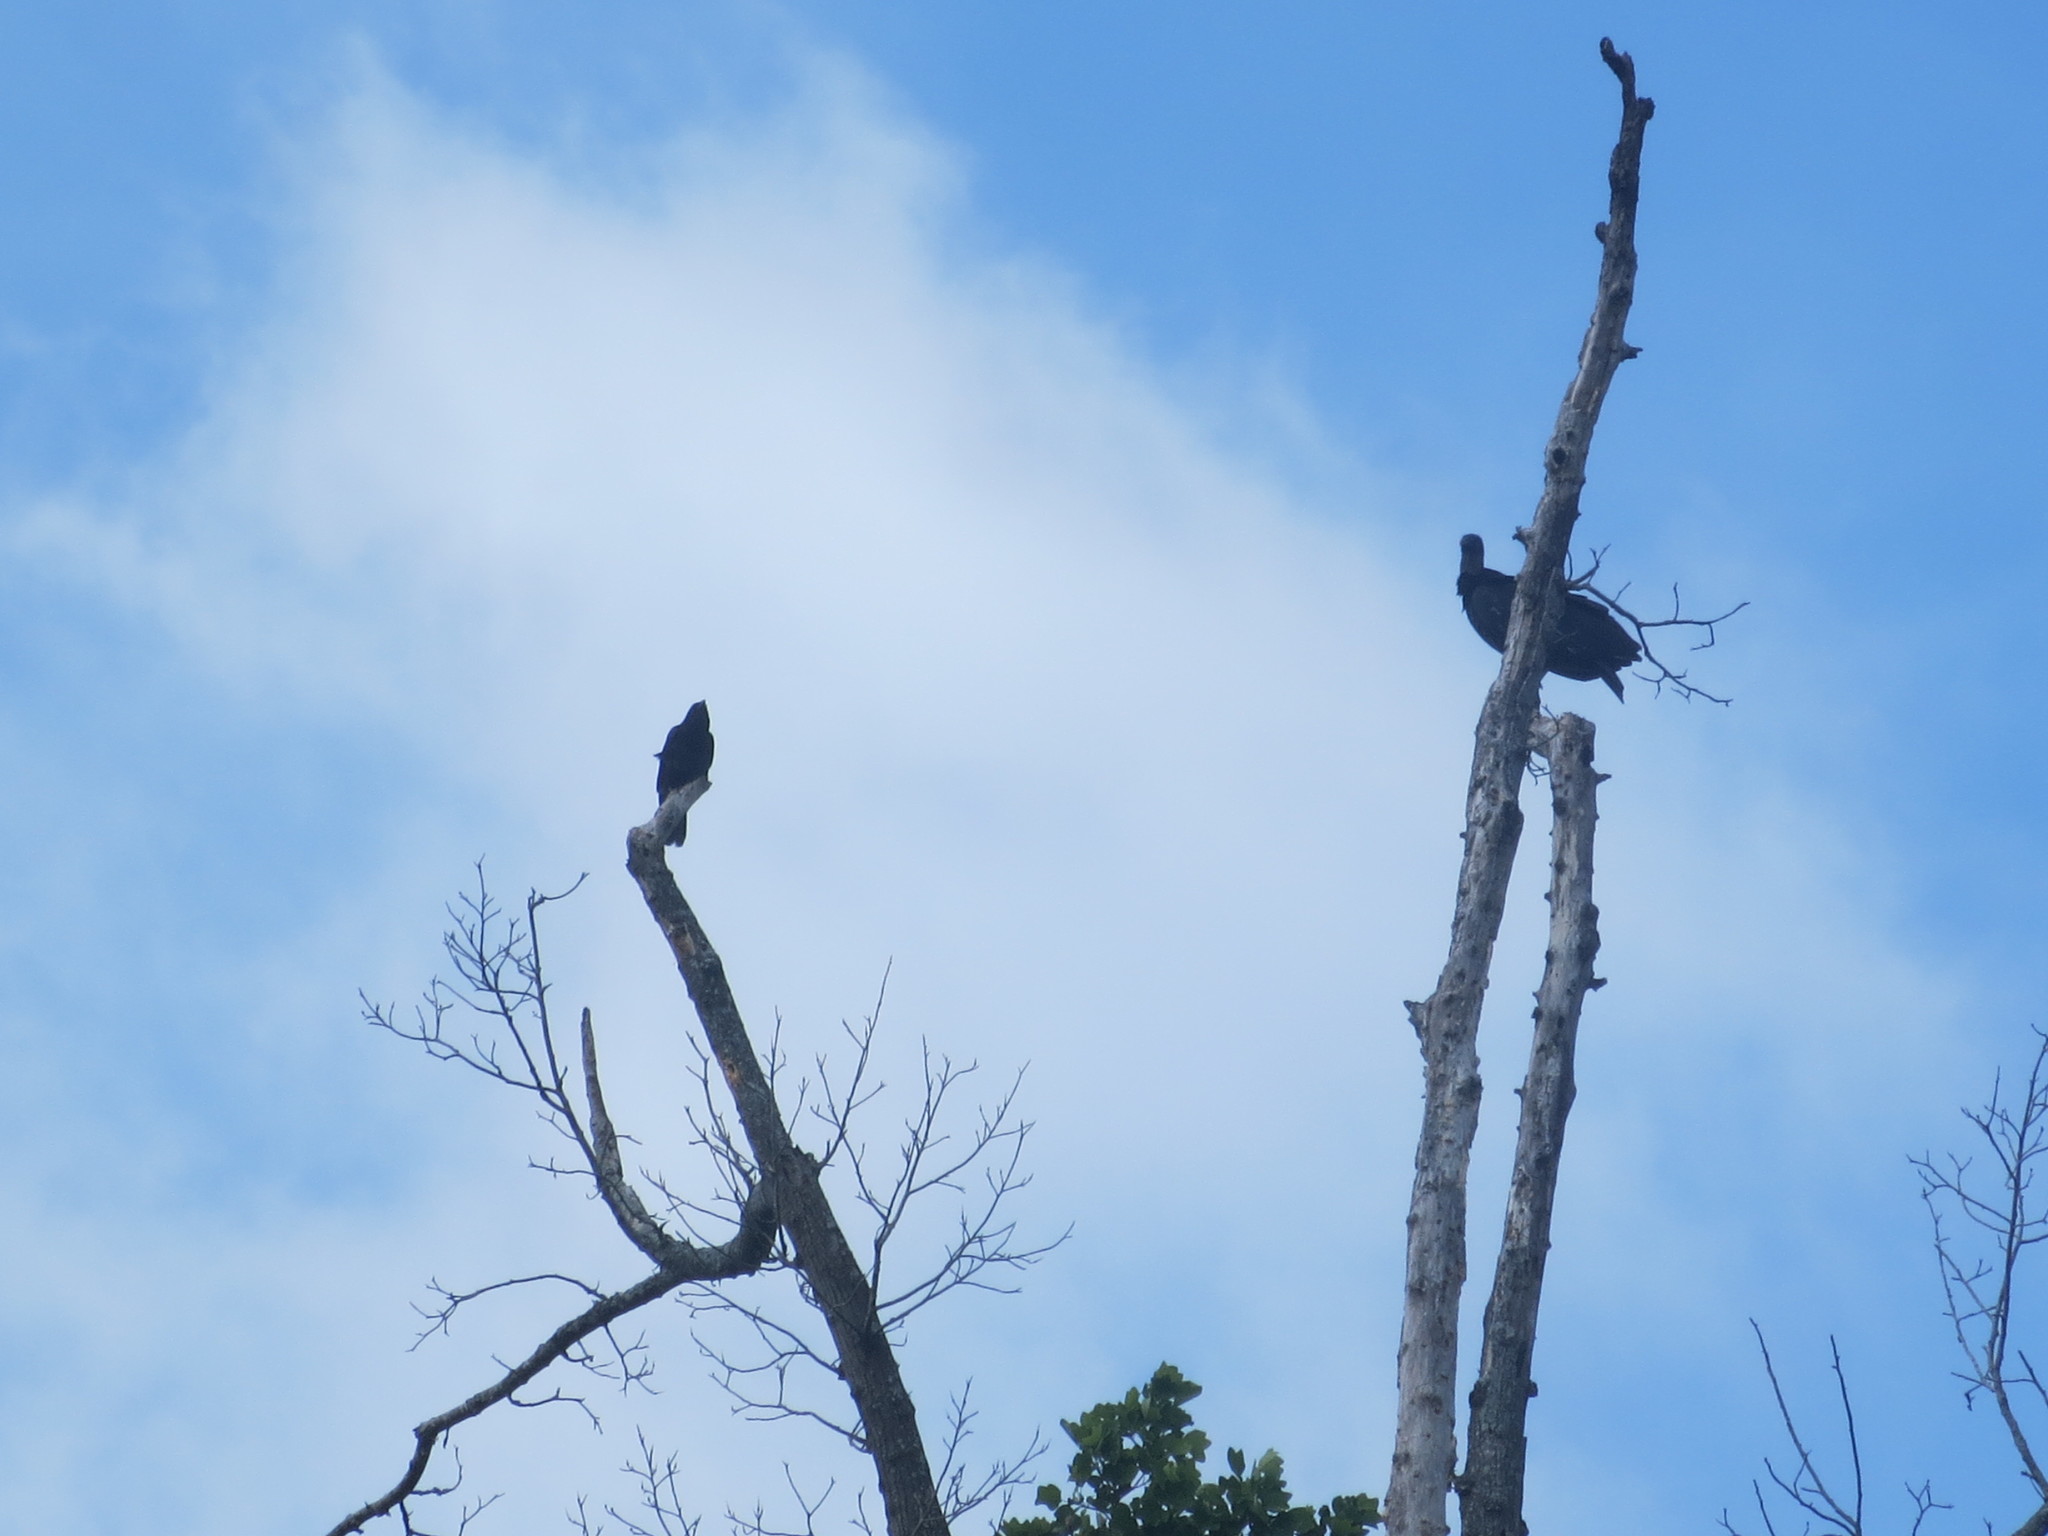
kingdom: Animalia
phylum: Chordata
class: Aves
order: Accipitriformes
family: Cathartidae
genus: Coragyps
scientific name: Coragyps atratus
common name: Black vulture
